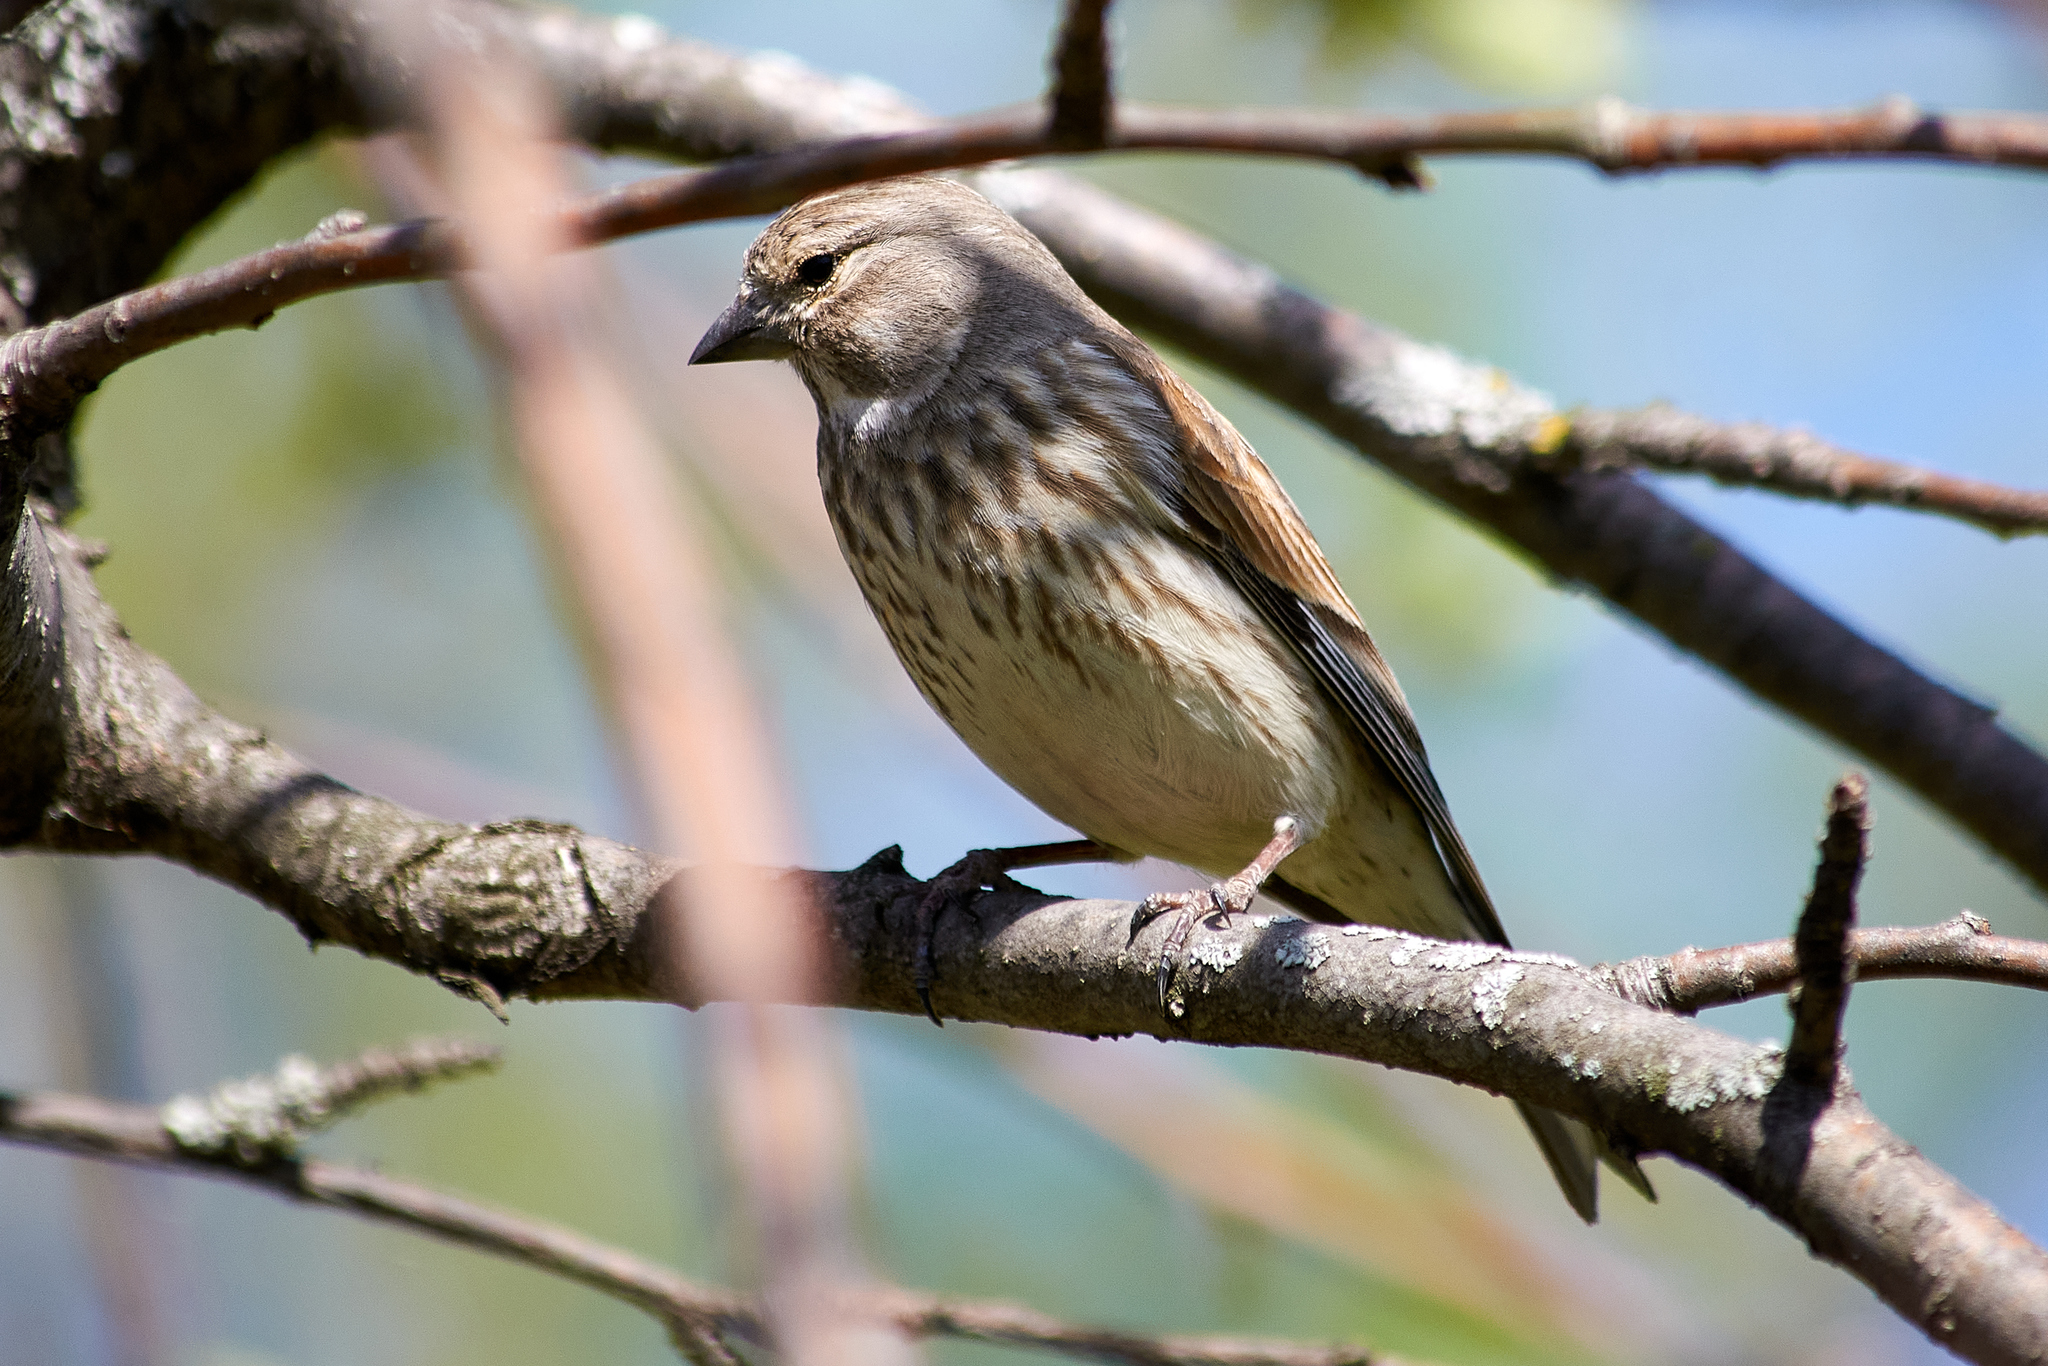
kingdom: Animalia
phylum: Chordata
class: Aves
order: Passeriformes
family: Fringillidae
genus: Linaria
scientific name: Linaria cannabina
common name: Common linnet
